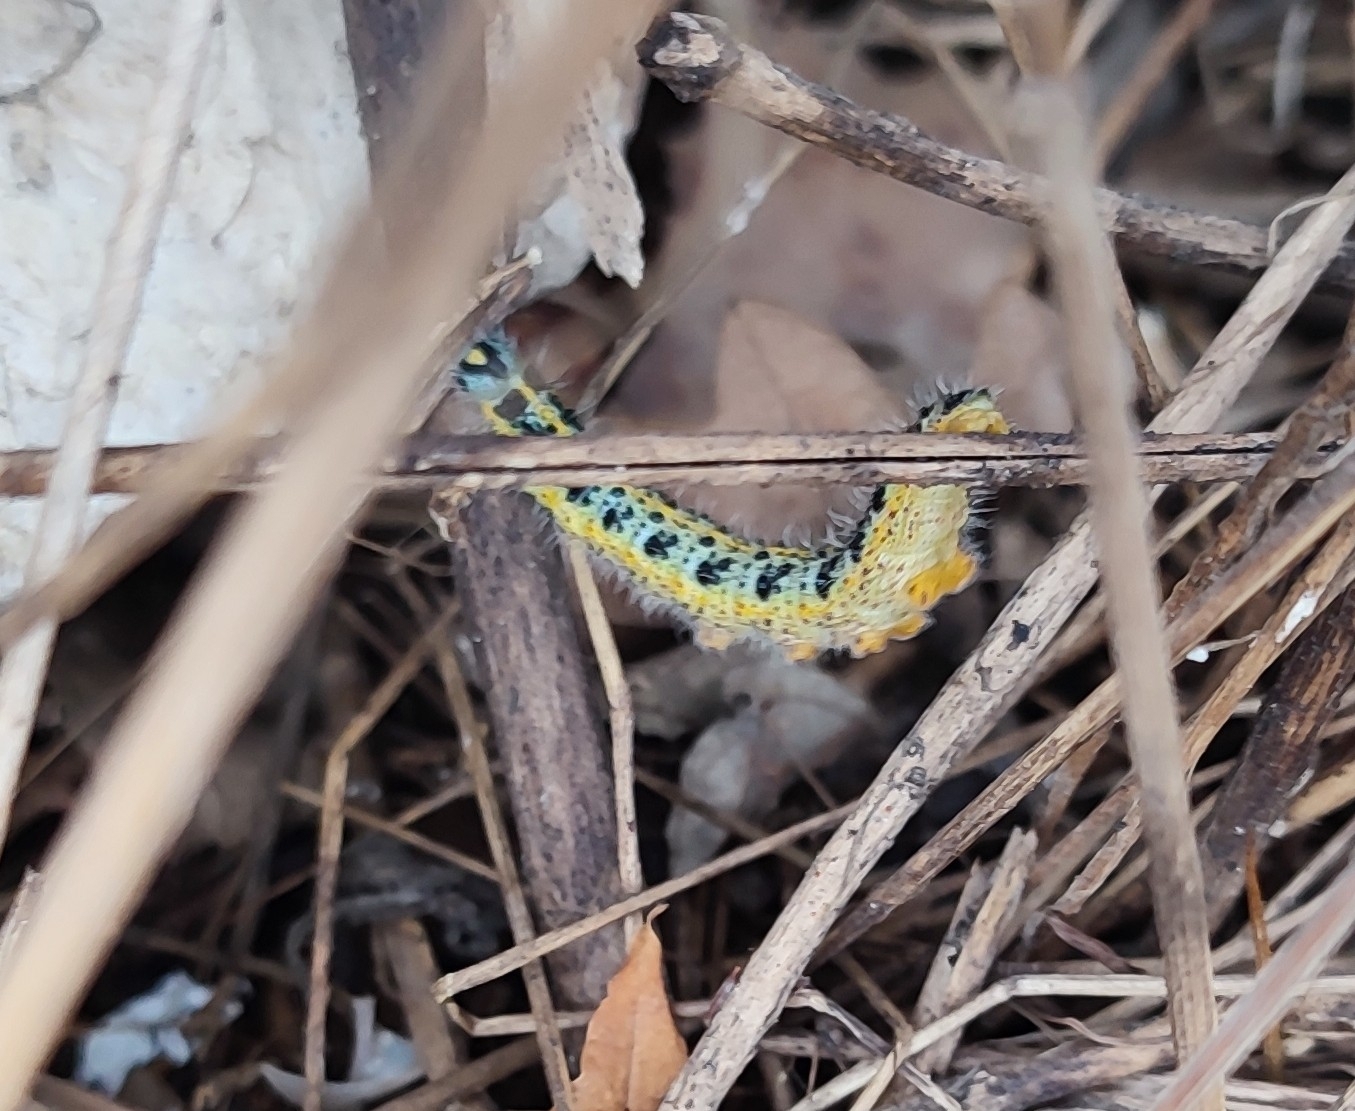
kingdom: Animalia
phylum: Arthropoda
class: Insecta
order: Lepidoptera
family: Pieridae
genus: Pieris
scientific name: Pieris brassicae
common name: Large white
